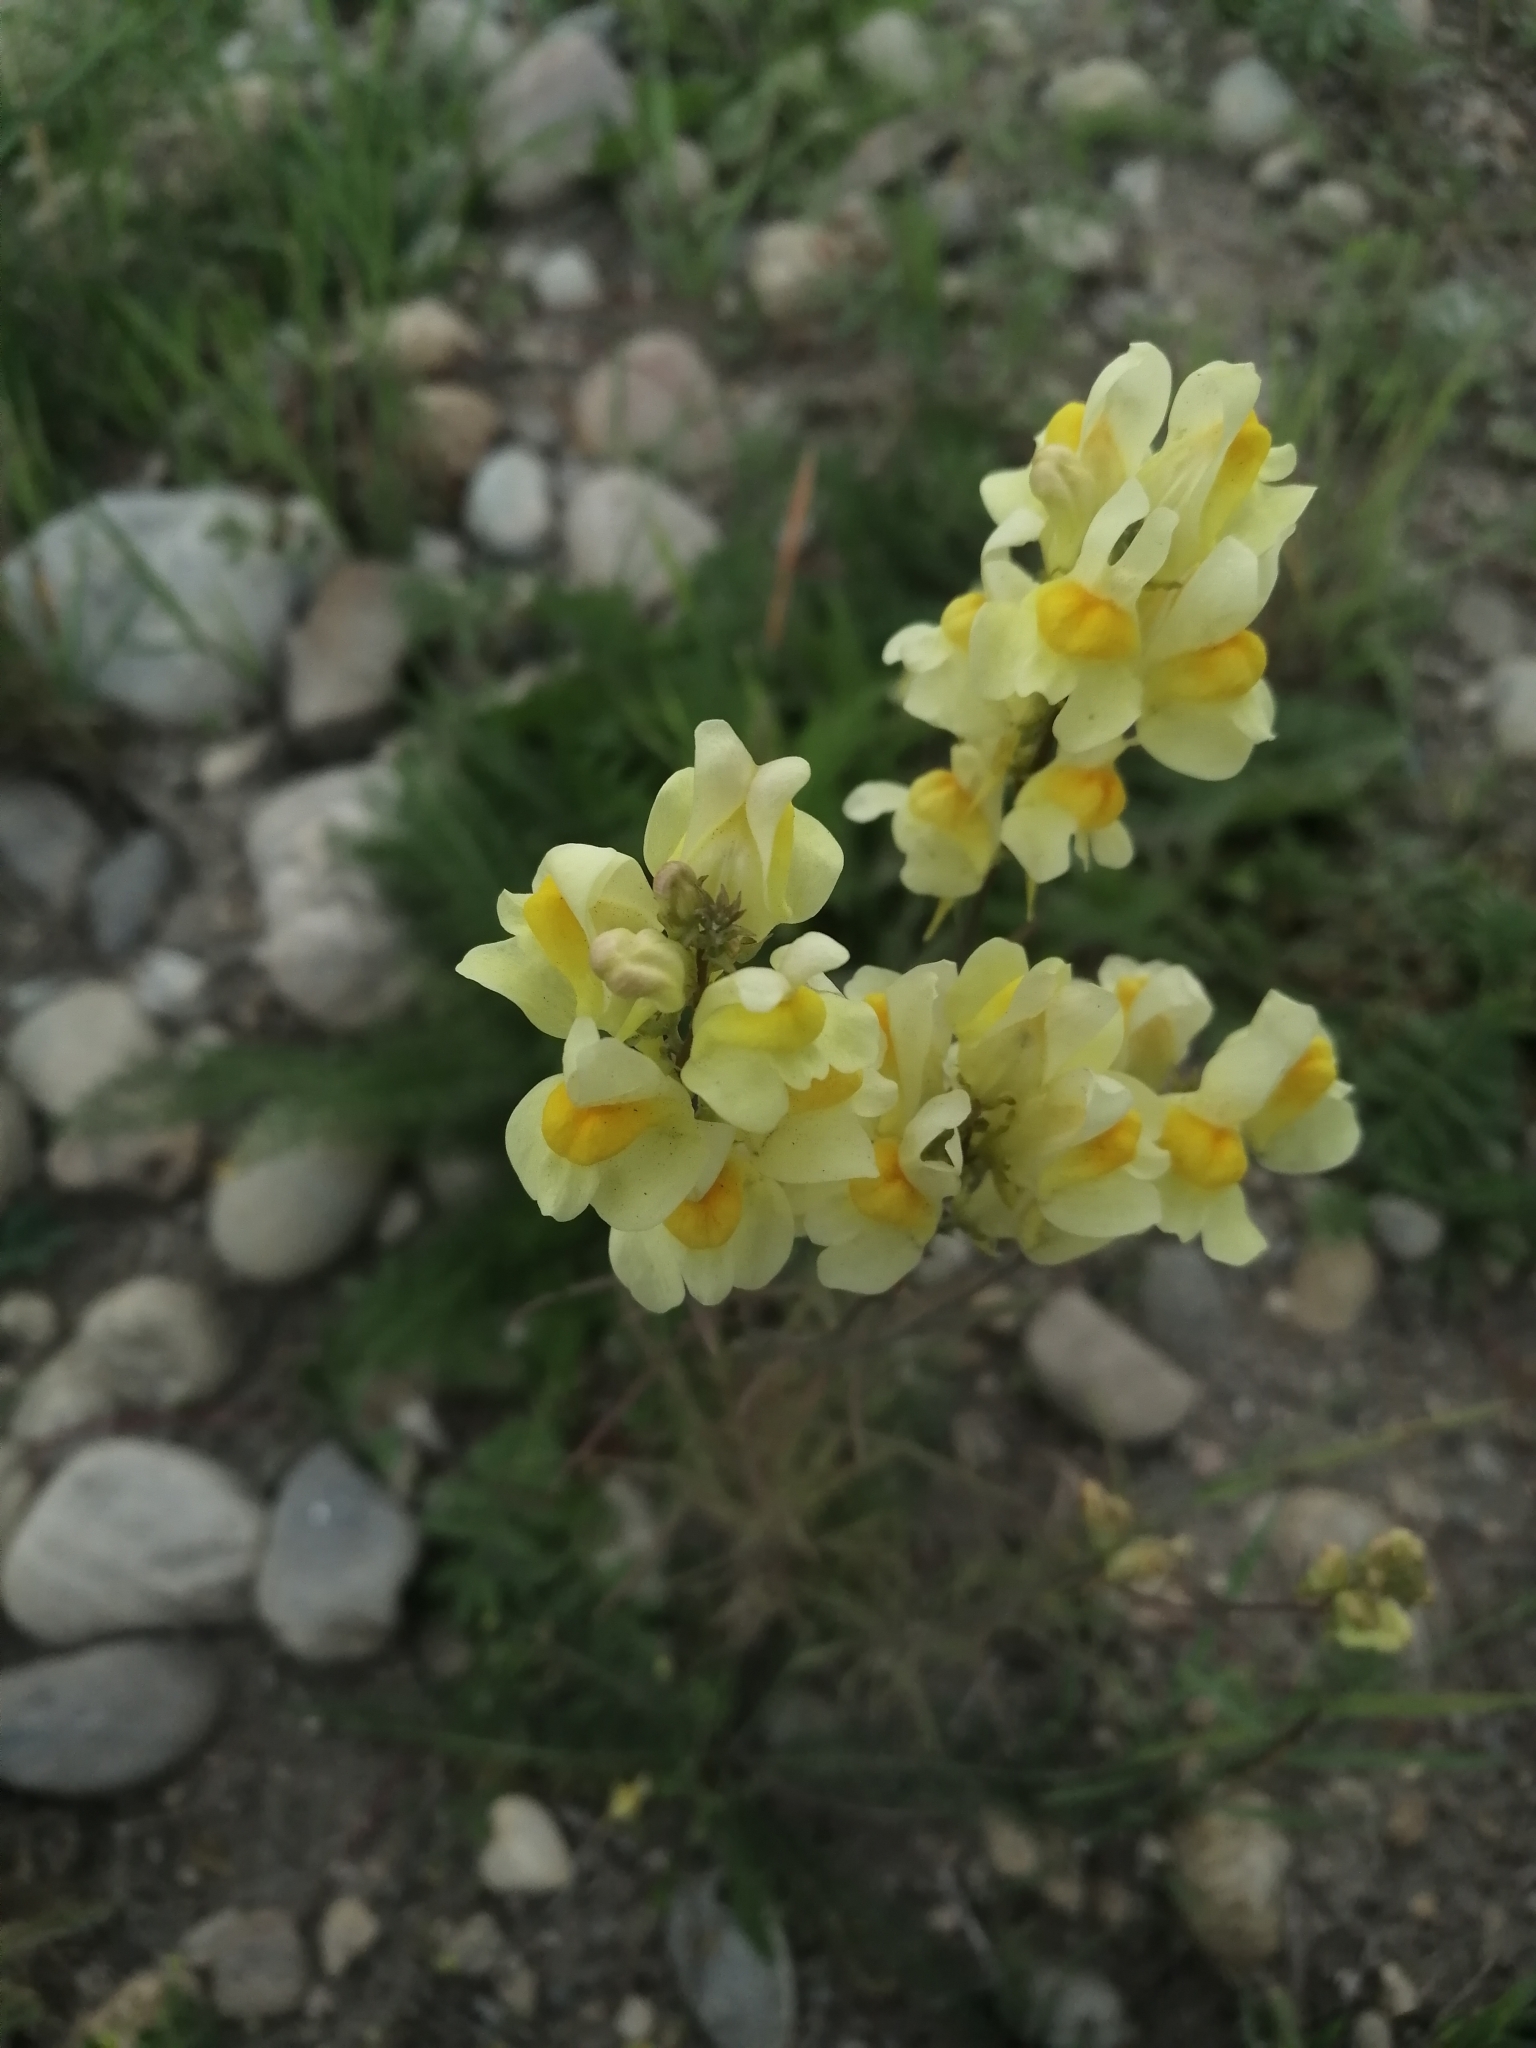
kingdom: Plantae
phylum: Tracheophyta
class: Magnoliopsida
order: Lamiales
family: Plantaginaceae
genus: Linaria
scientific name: Linaria vulgaris
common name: Butter and eggs
